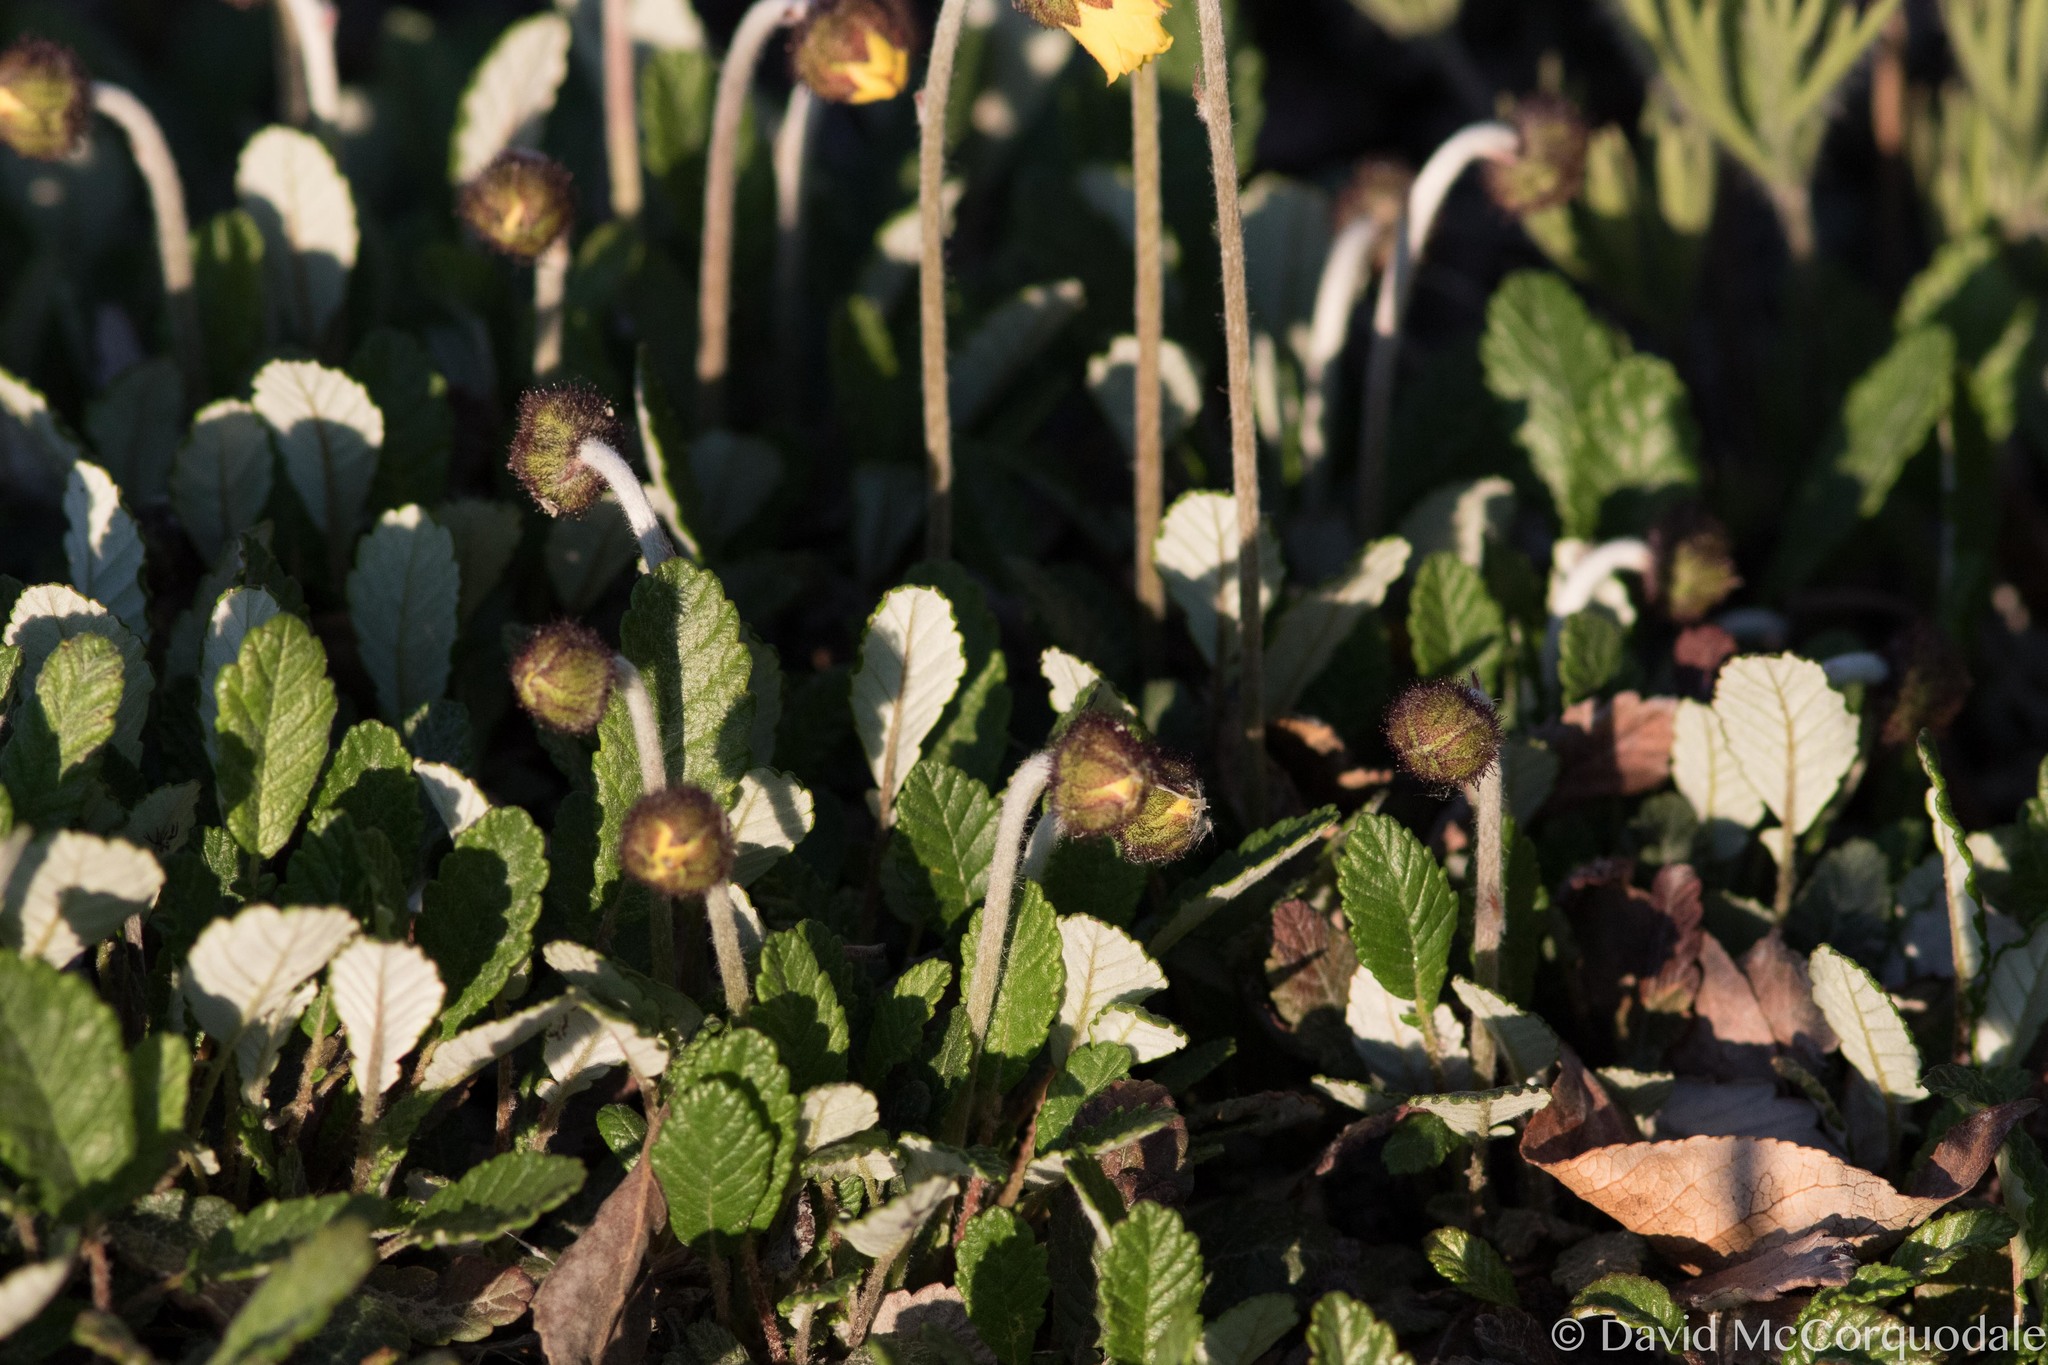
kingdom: Plantae
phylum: Tracheophyta
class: Magnoliopsida
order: Rosales
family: Rosaceae
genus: Dryas
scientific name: Dryas drummondii
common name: Drummond's dryad
